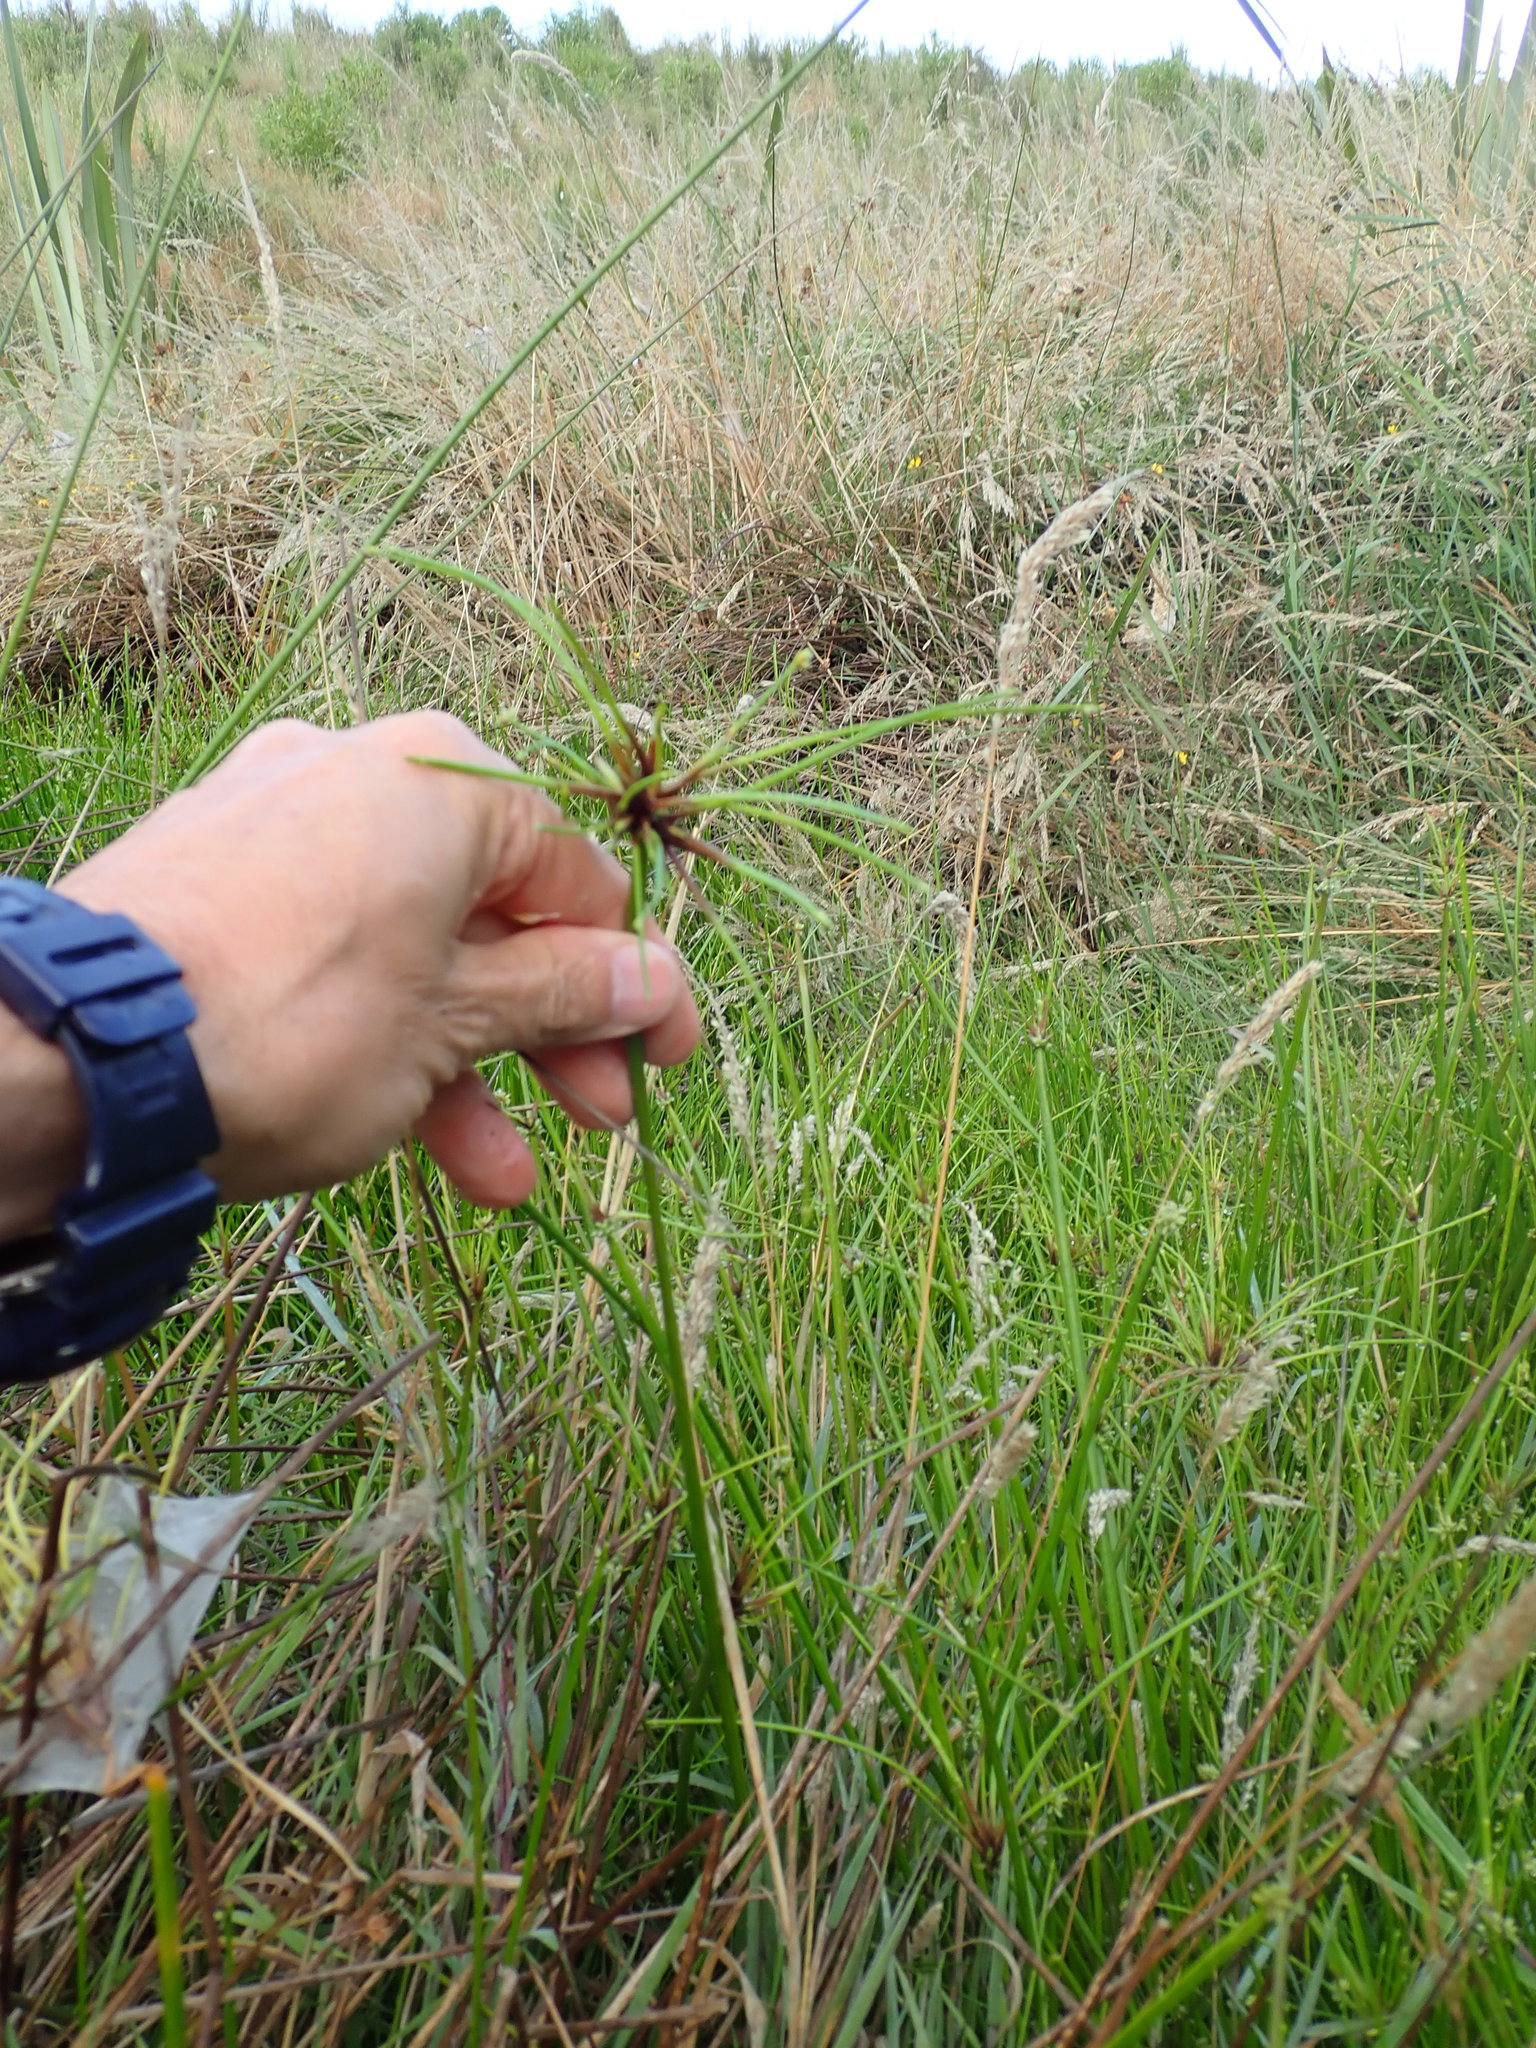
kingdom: Plantae
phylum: Tracheophyta
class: Liliopsida
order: Poales
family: Cyperaceae
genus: Isolepis
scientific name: Isolepis prolifera
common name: Proliferating bulrush
